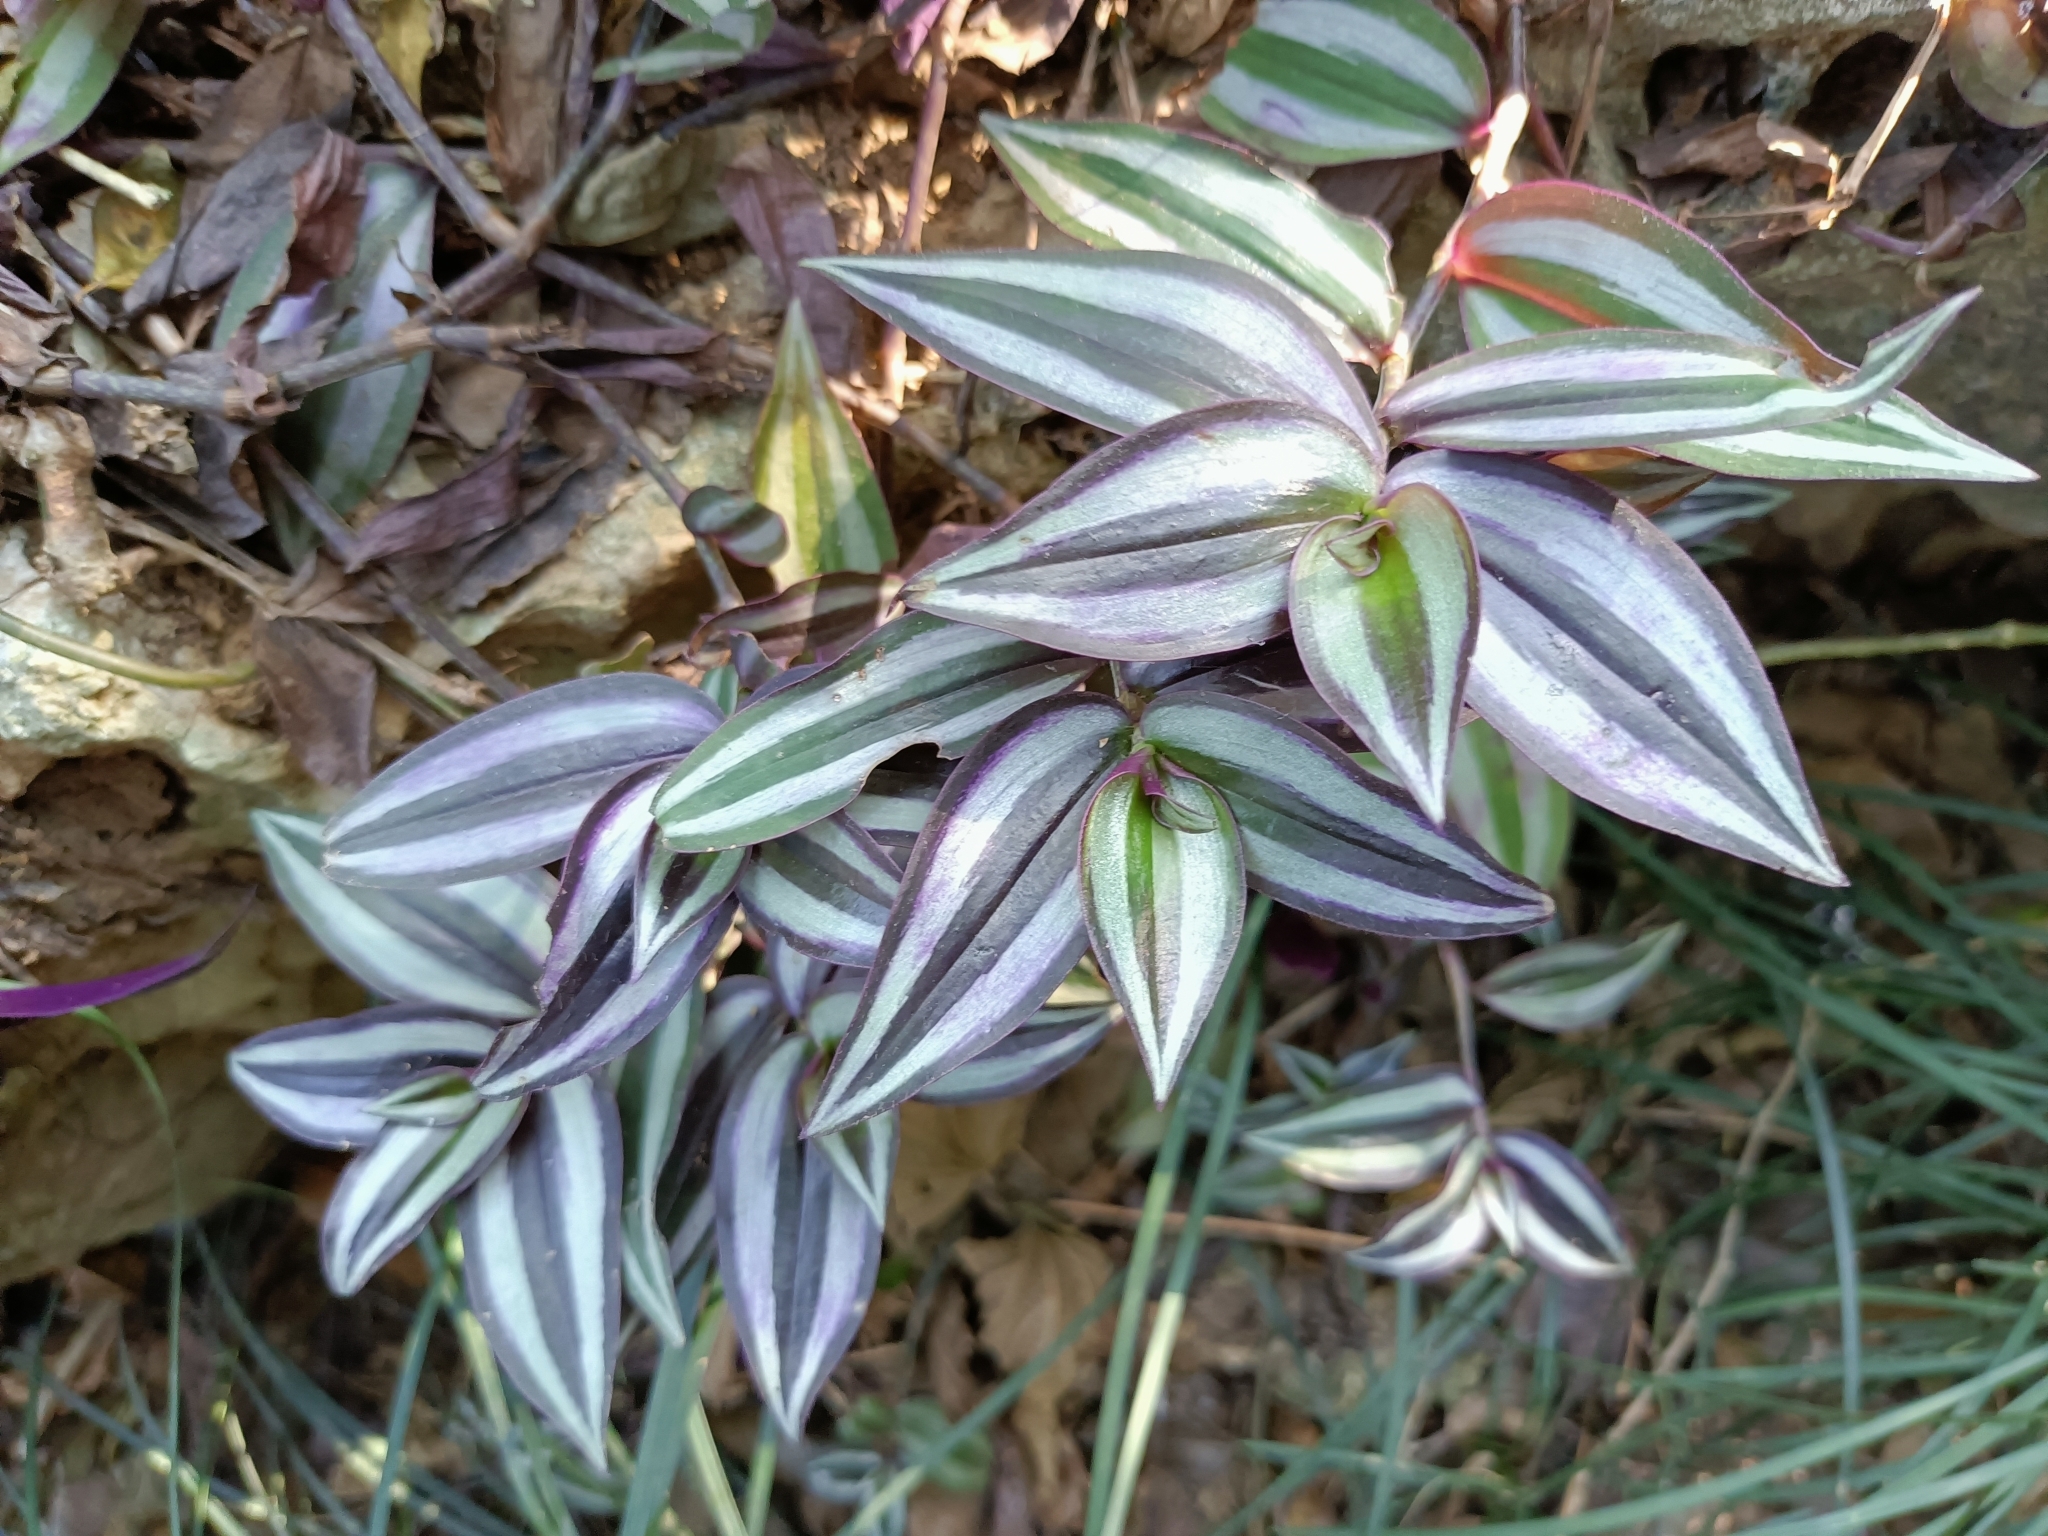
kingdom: Plantae
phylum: Tracheophyta
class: Liliopsida
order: Commelinales
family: Commelinaceae
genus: Tradescantia
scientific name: Tradescantia zebrina
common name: Inchplant
